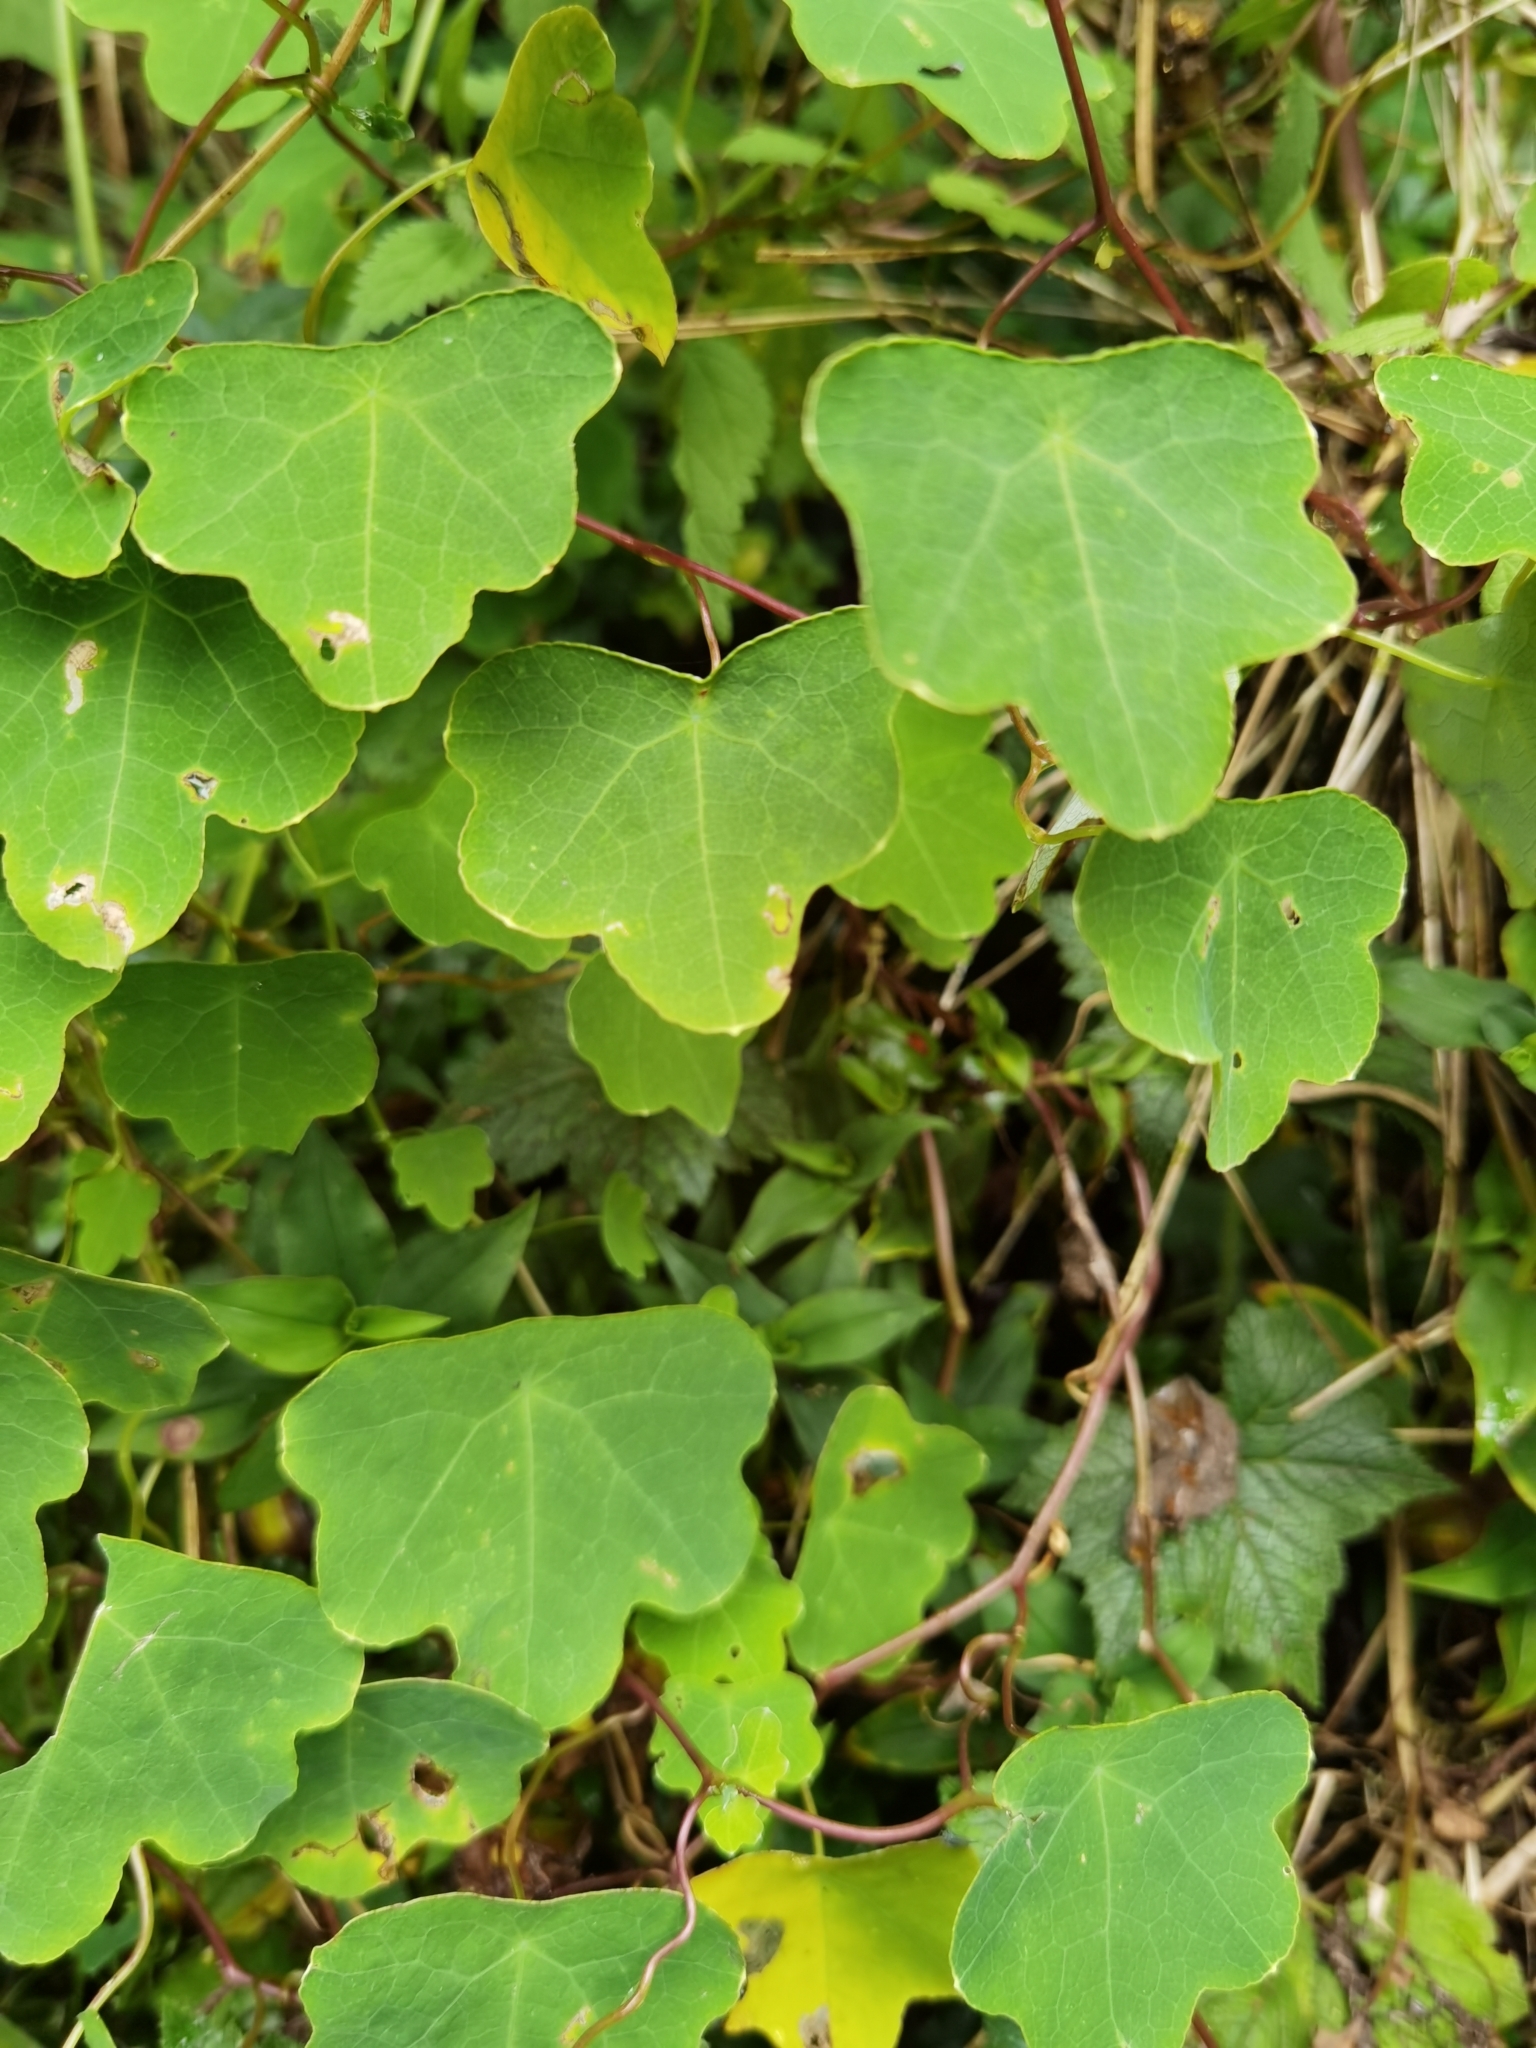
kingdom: Plantae
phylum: Tracheophyta
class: Magnoliopsida
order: Brassicales
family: Tropaeolaceae
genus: Tropaeolum
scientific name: Tropaeolum emarginatum
